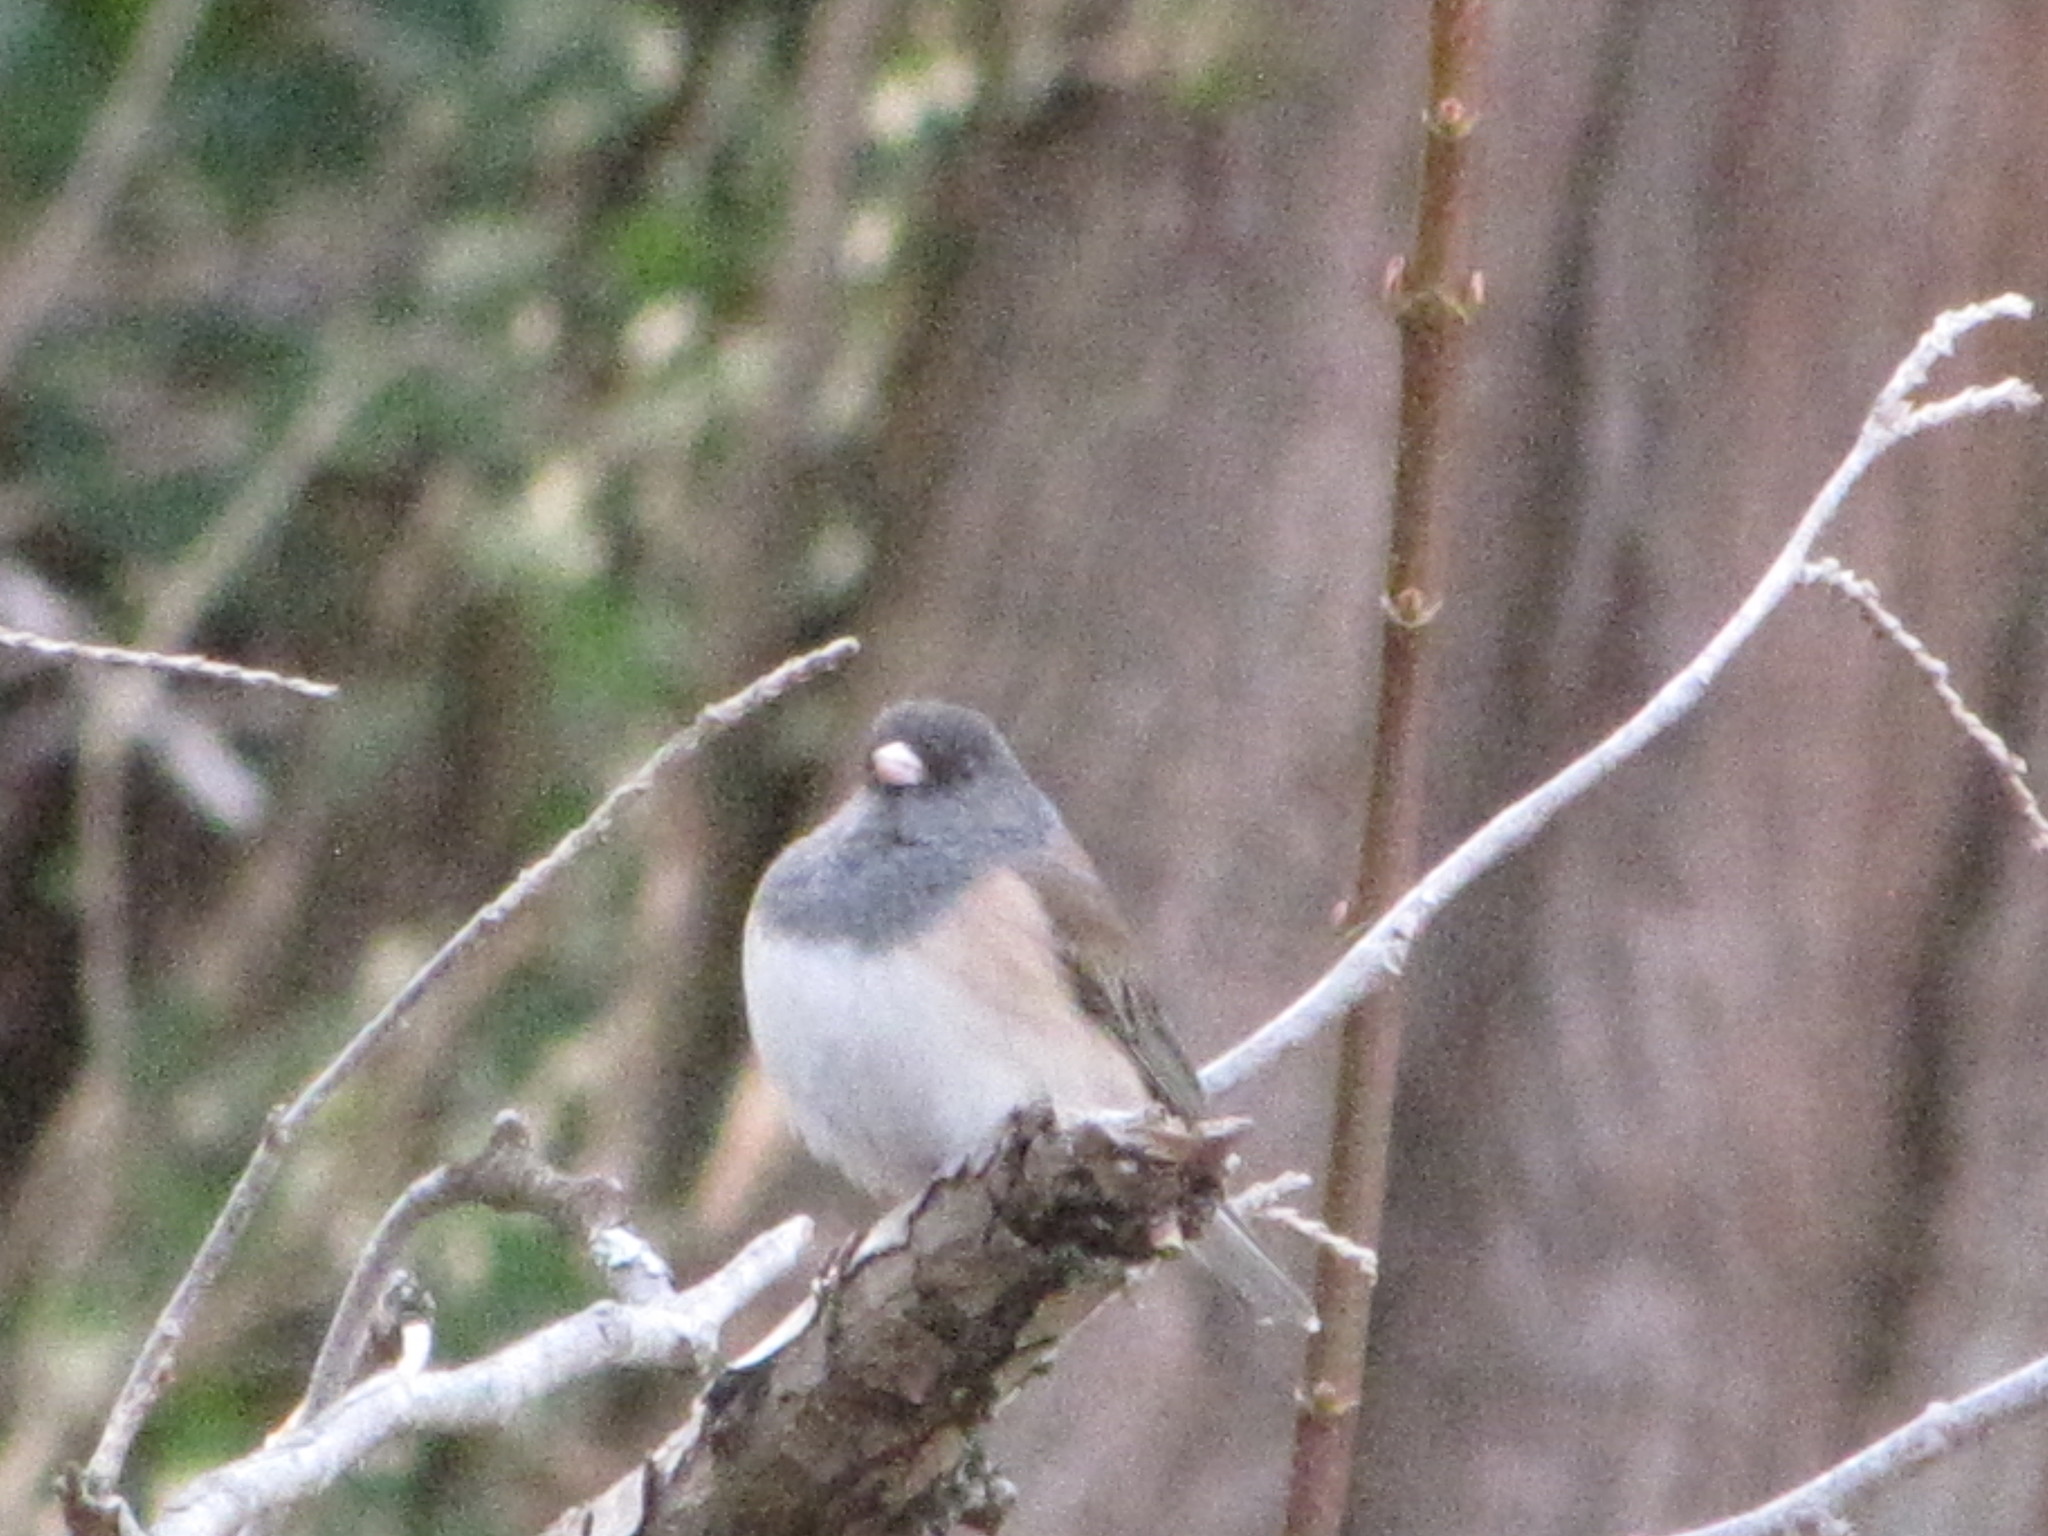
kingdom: Animalia
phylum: Chordata
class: Aves
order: Passeriformes
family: Passerellidae
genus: Junco
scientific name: Junco hyemalis
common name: Dark-eyed junco
